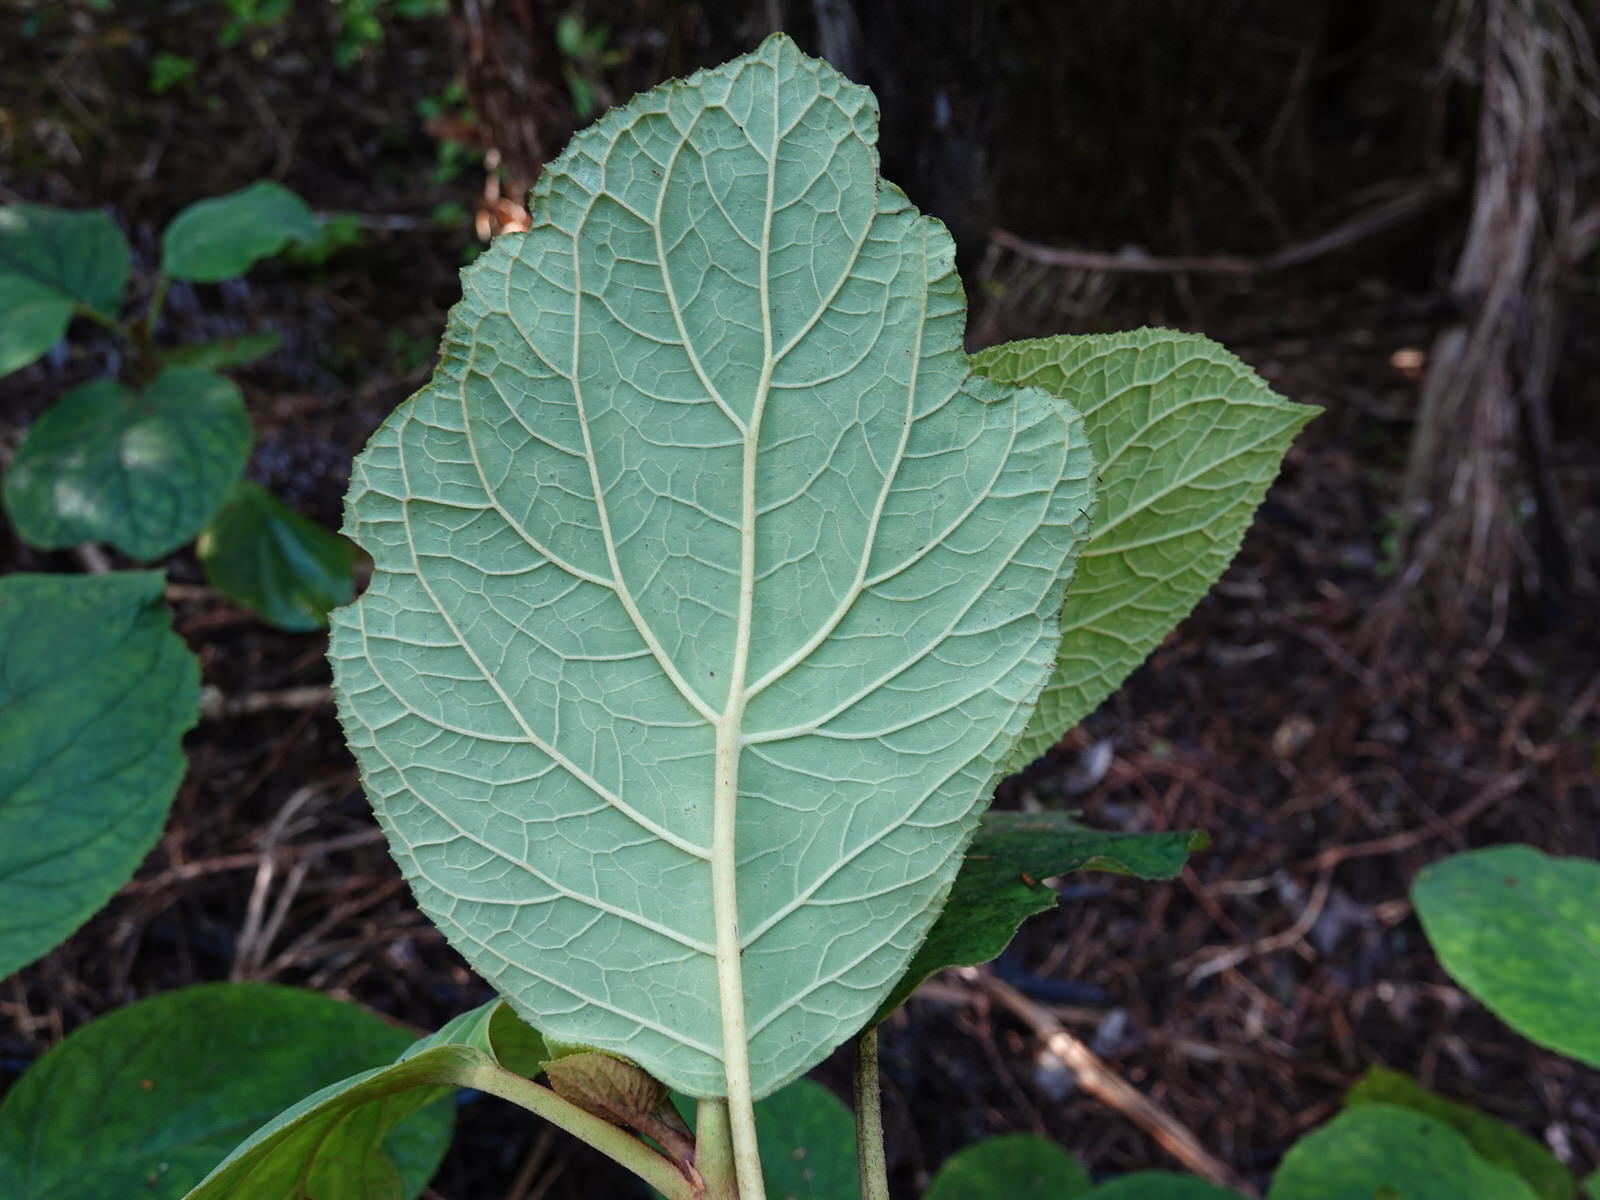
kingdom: Plantae
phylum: Tracheophyta
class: Magnoliopsida
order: Asterales
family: Asteraceae
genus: Bartlettina
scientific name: Bartlettina sordida
